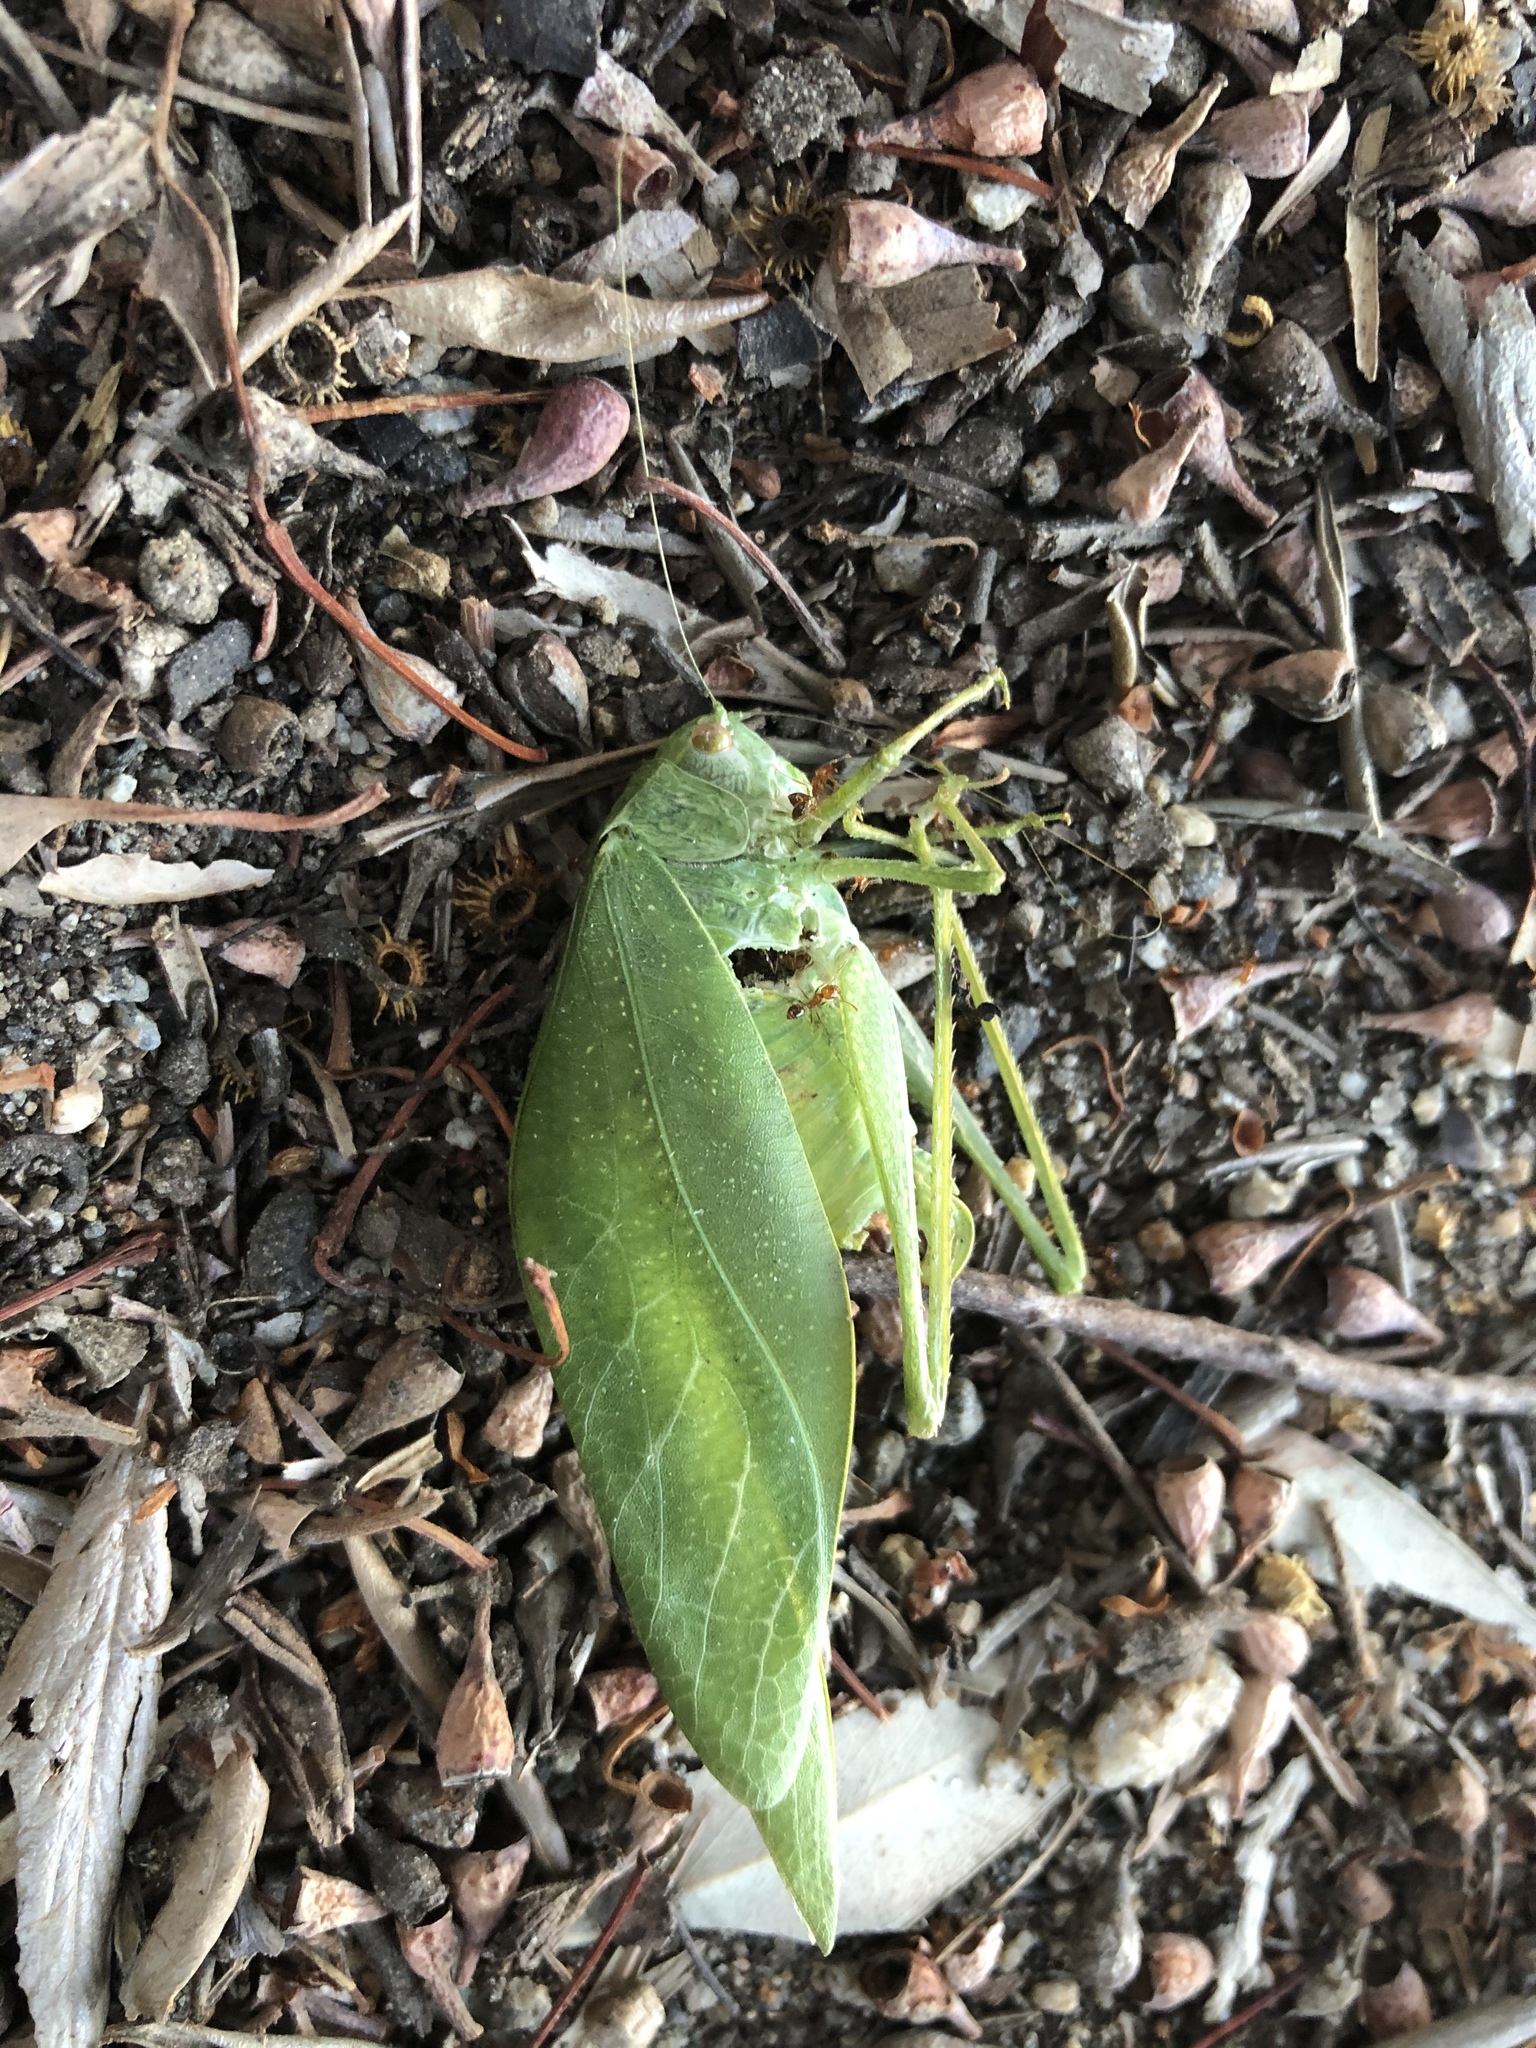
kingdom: Animalia
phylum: Arthropoda
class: Insecta
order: Orthoptera
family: Tettigoniidae
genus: Microcentrum
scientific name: Microcentrum rhombifolium
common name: Broad-winged katydid
